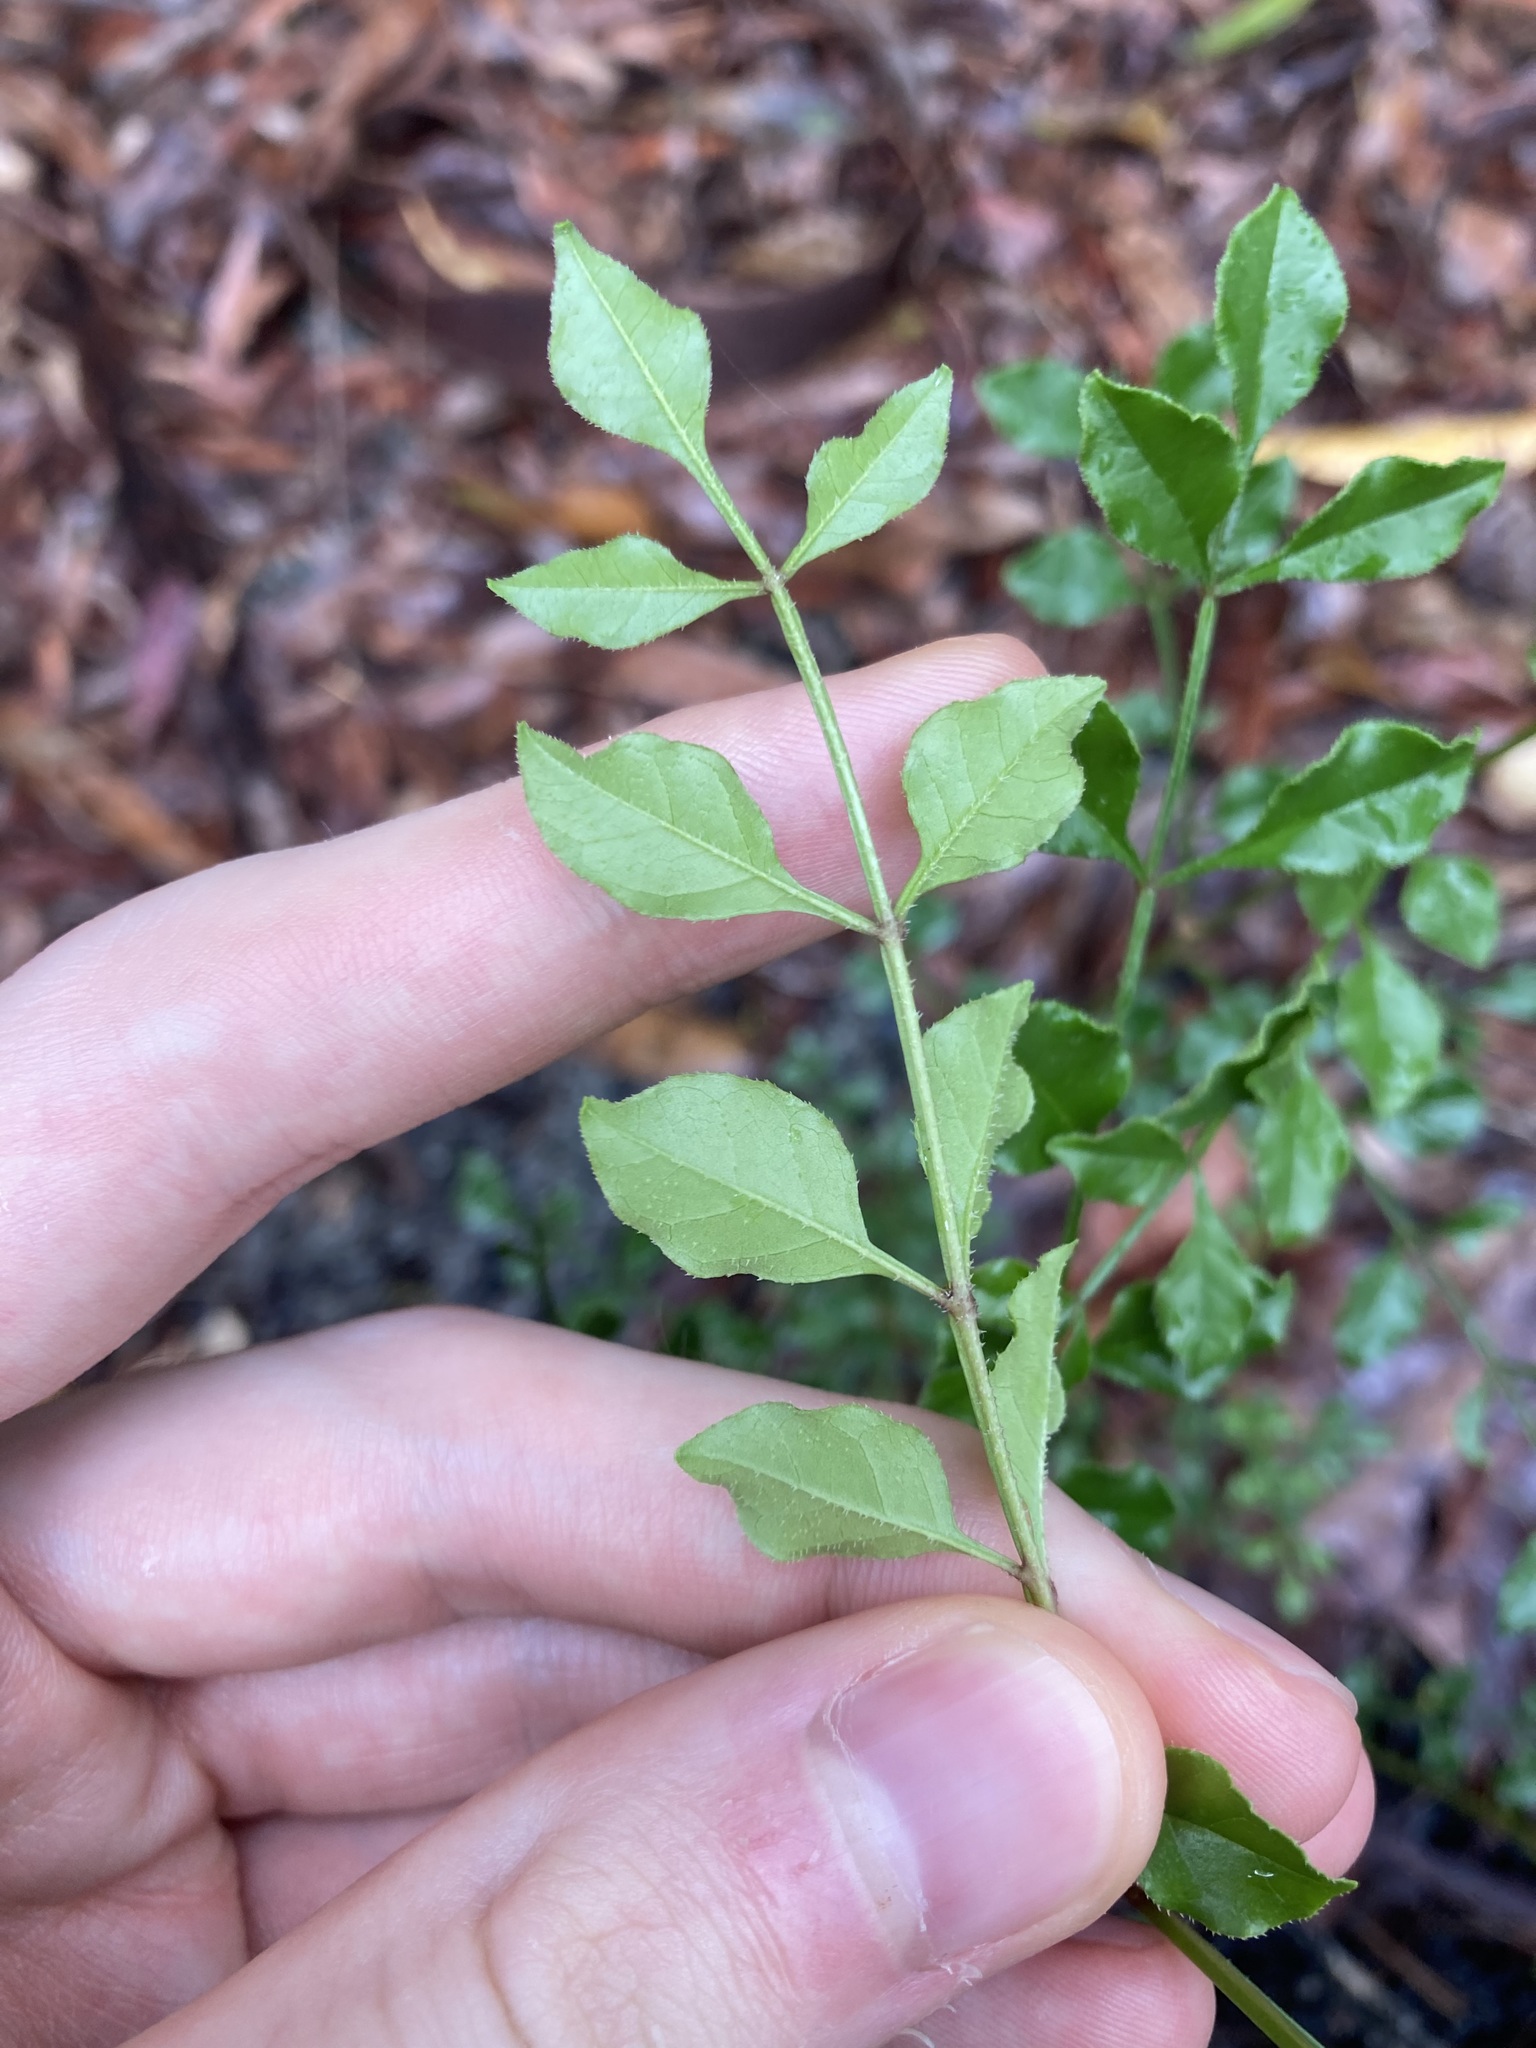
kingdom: Plantae
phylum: Tracheophyta
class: Magnoliopsida
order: Lamiales
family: Oleaceae
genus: Fraxinus
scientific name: Fraxinus griffithii
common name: Himalayan ash
